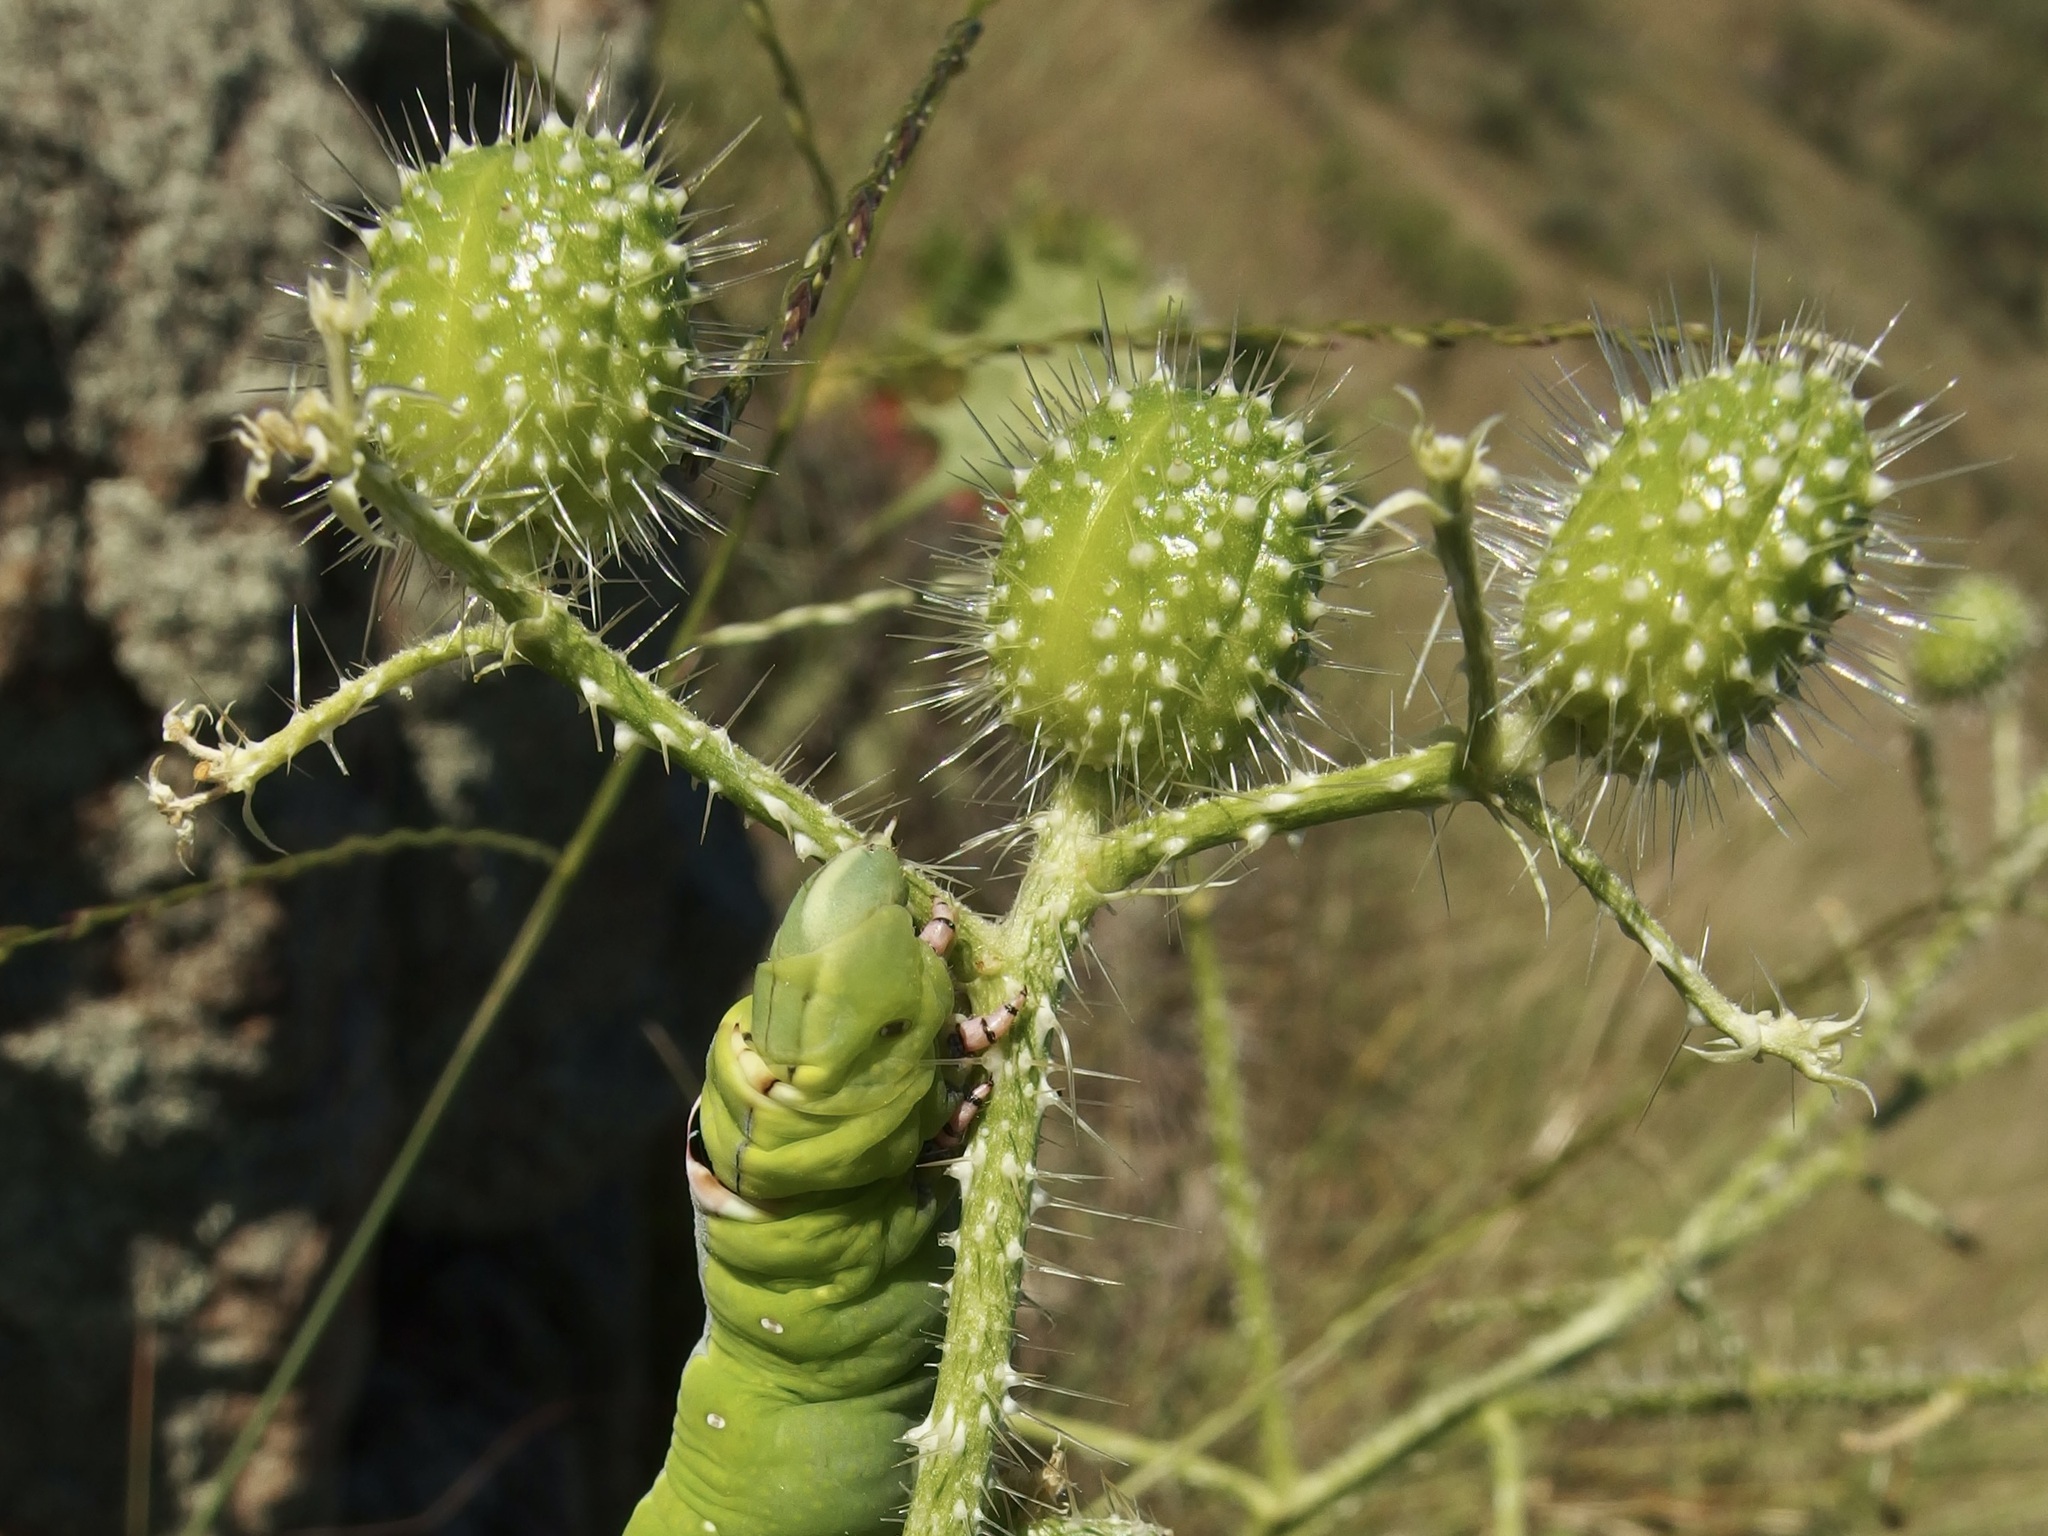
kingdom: Plantae
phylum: Tracheophyta
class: Magnoliopsida
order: Malpighiales
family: Euphorbiaceae
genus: Cnidoscolus
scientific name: Cnidoscolus angustidens
